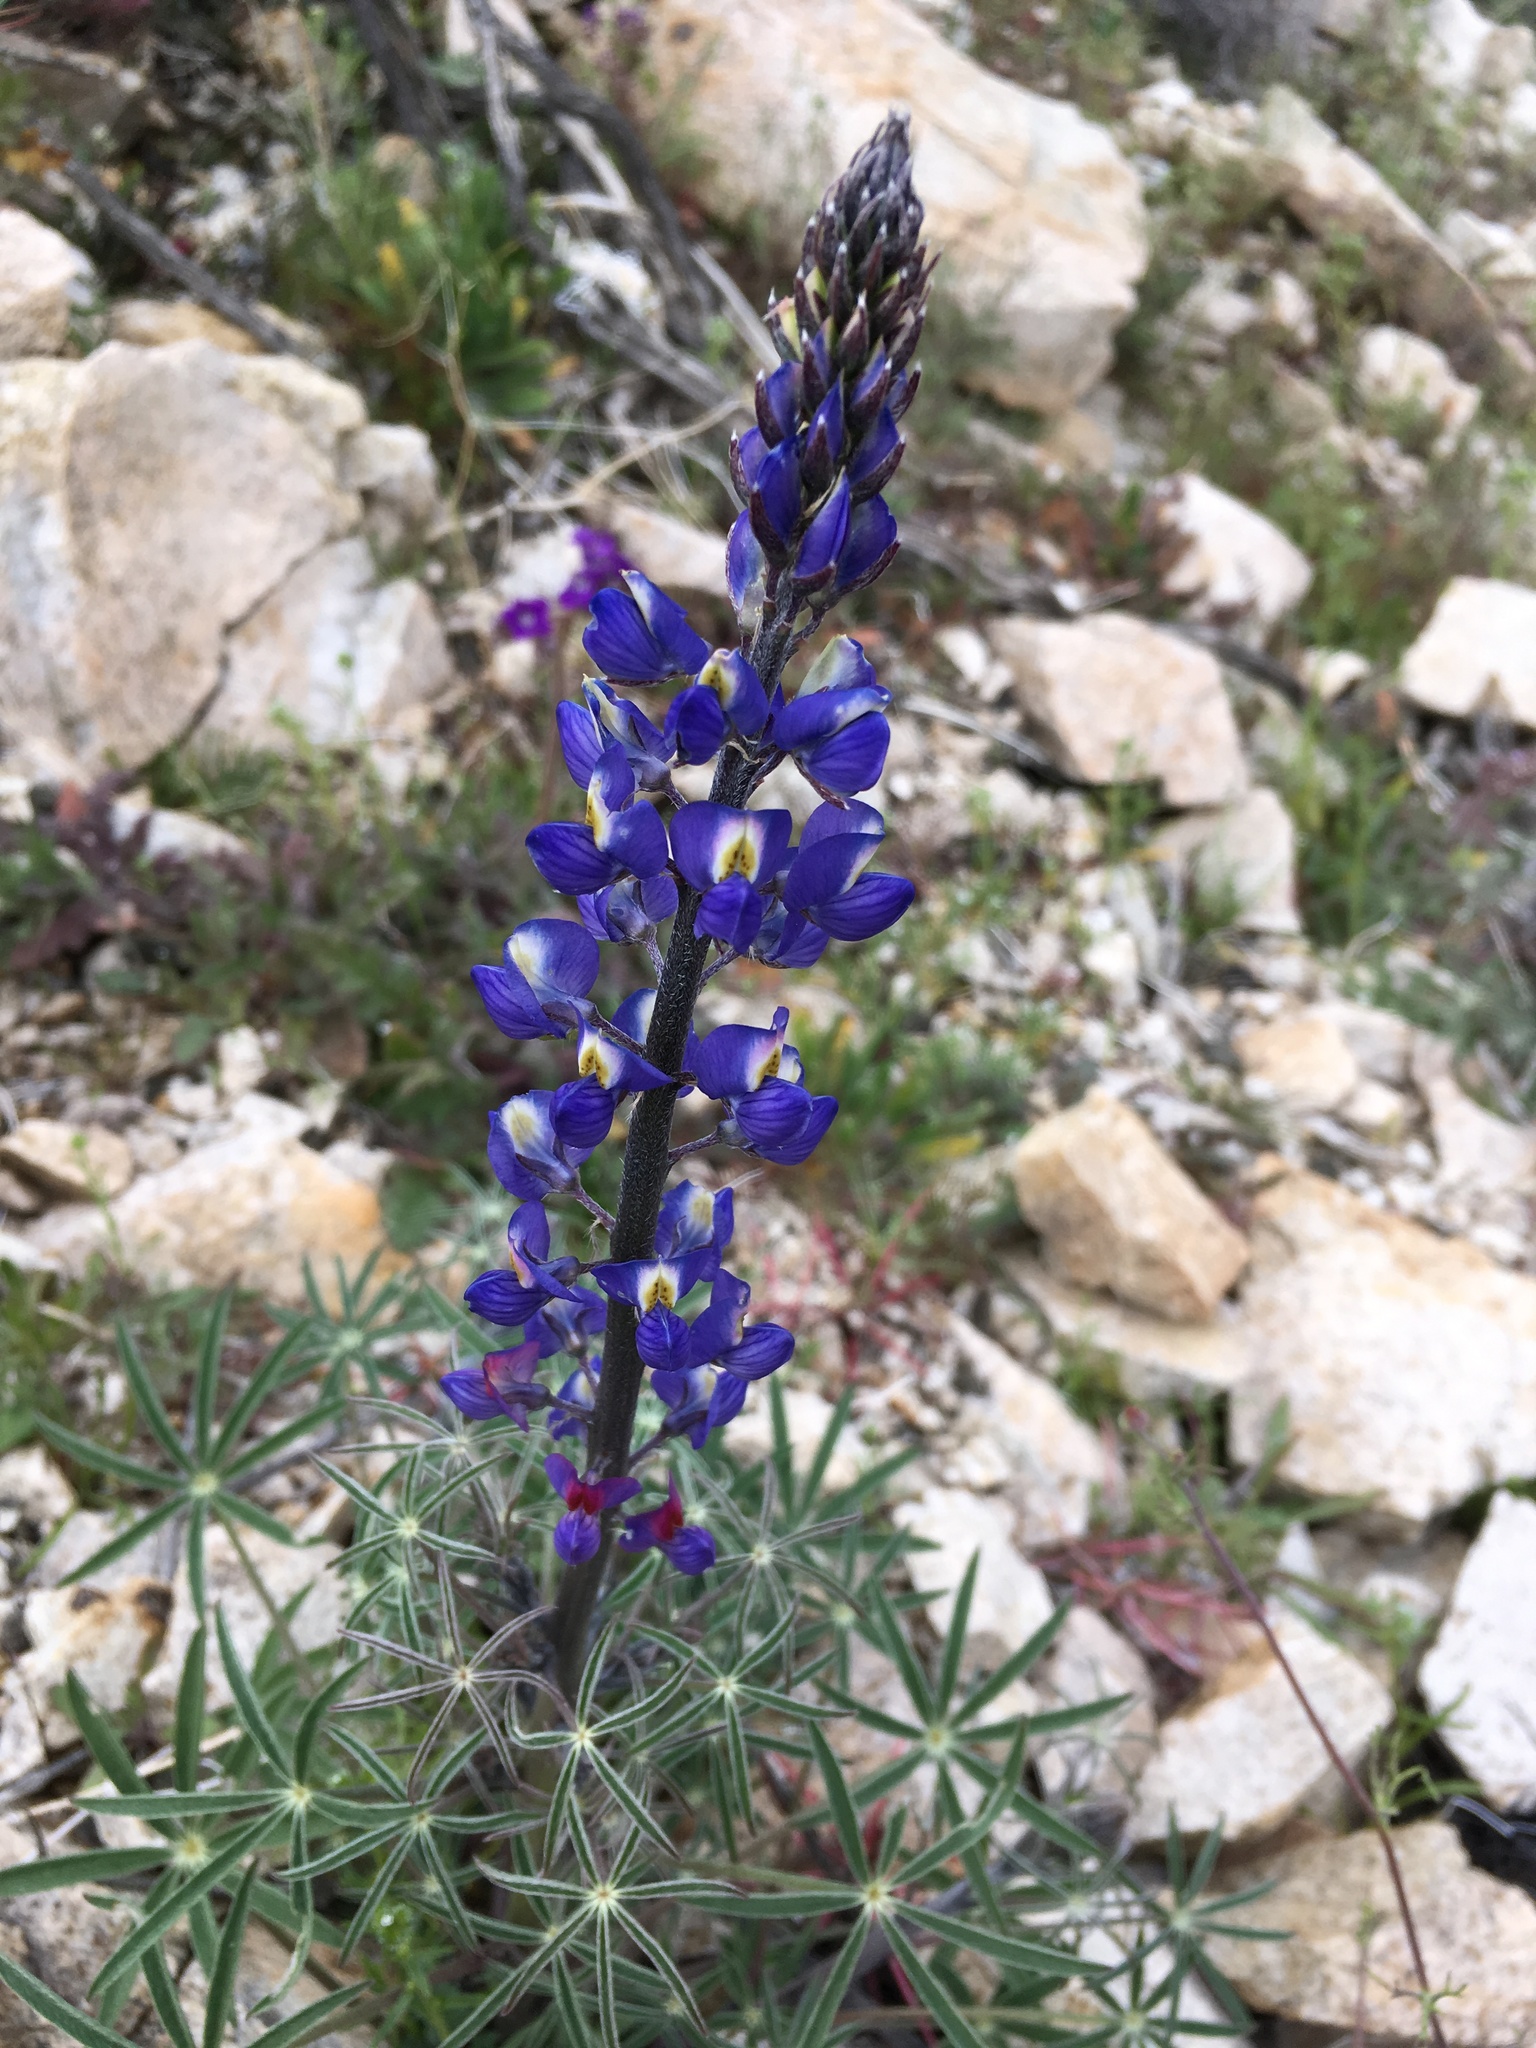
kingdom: Plantae
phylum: Tracheophyta
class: Magnoliopsida
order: Fabales
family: Fabaceae
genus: Lupinus
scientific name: Lupinus sparsiflorus
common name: Coulter's lupine
